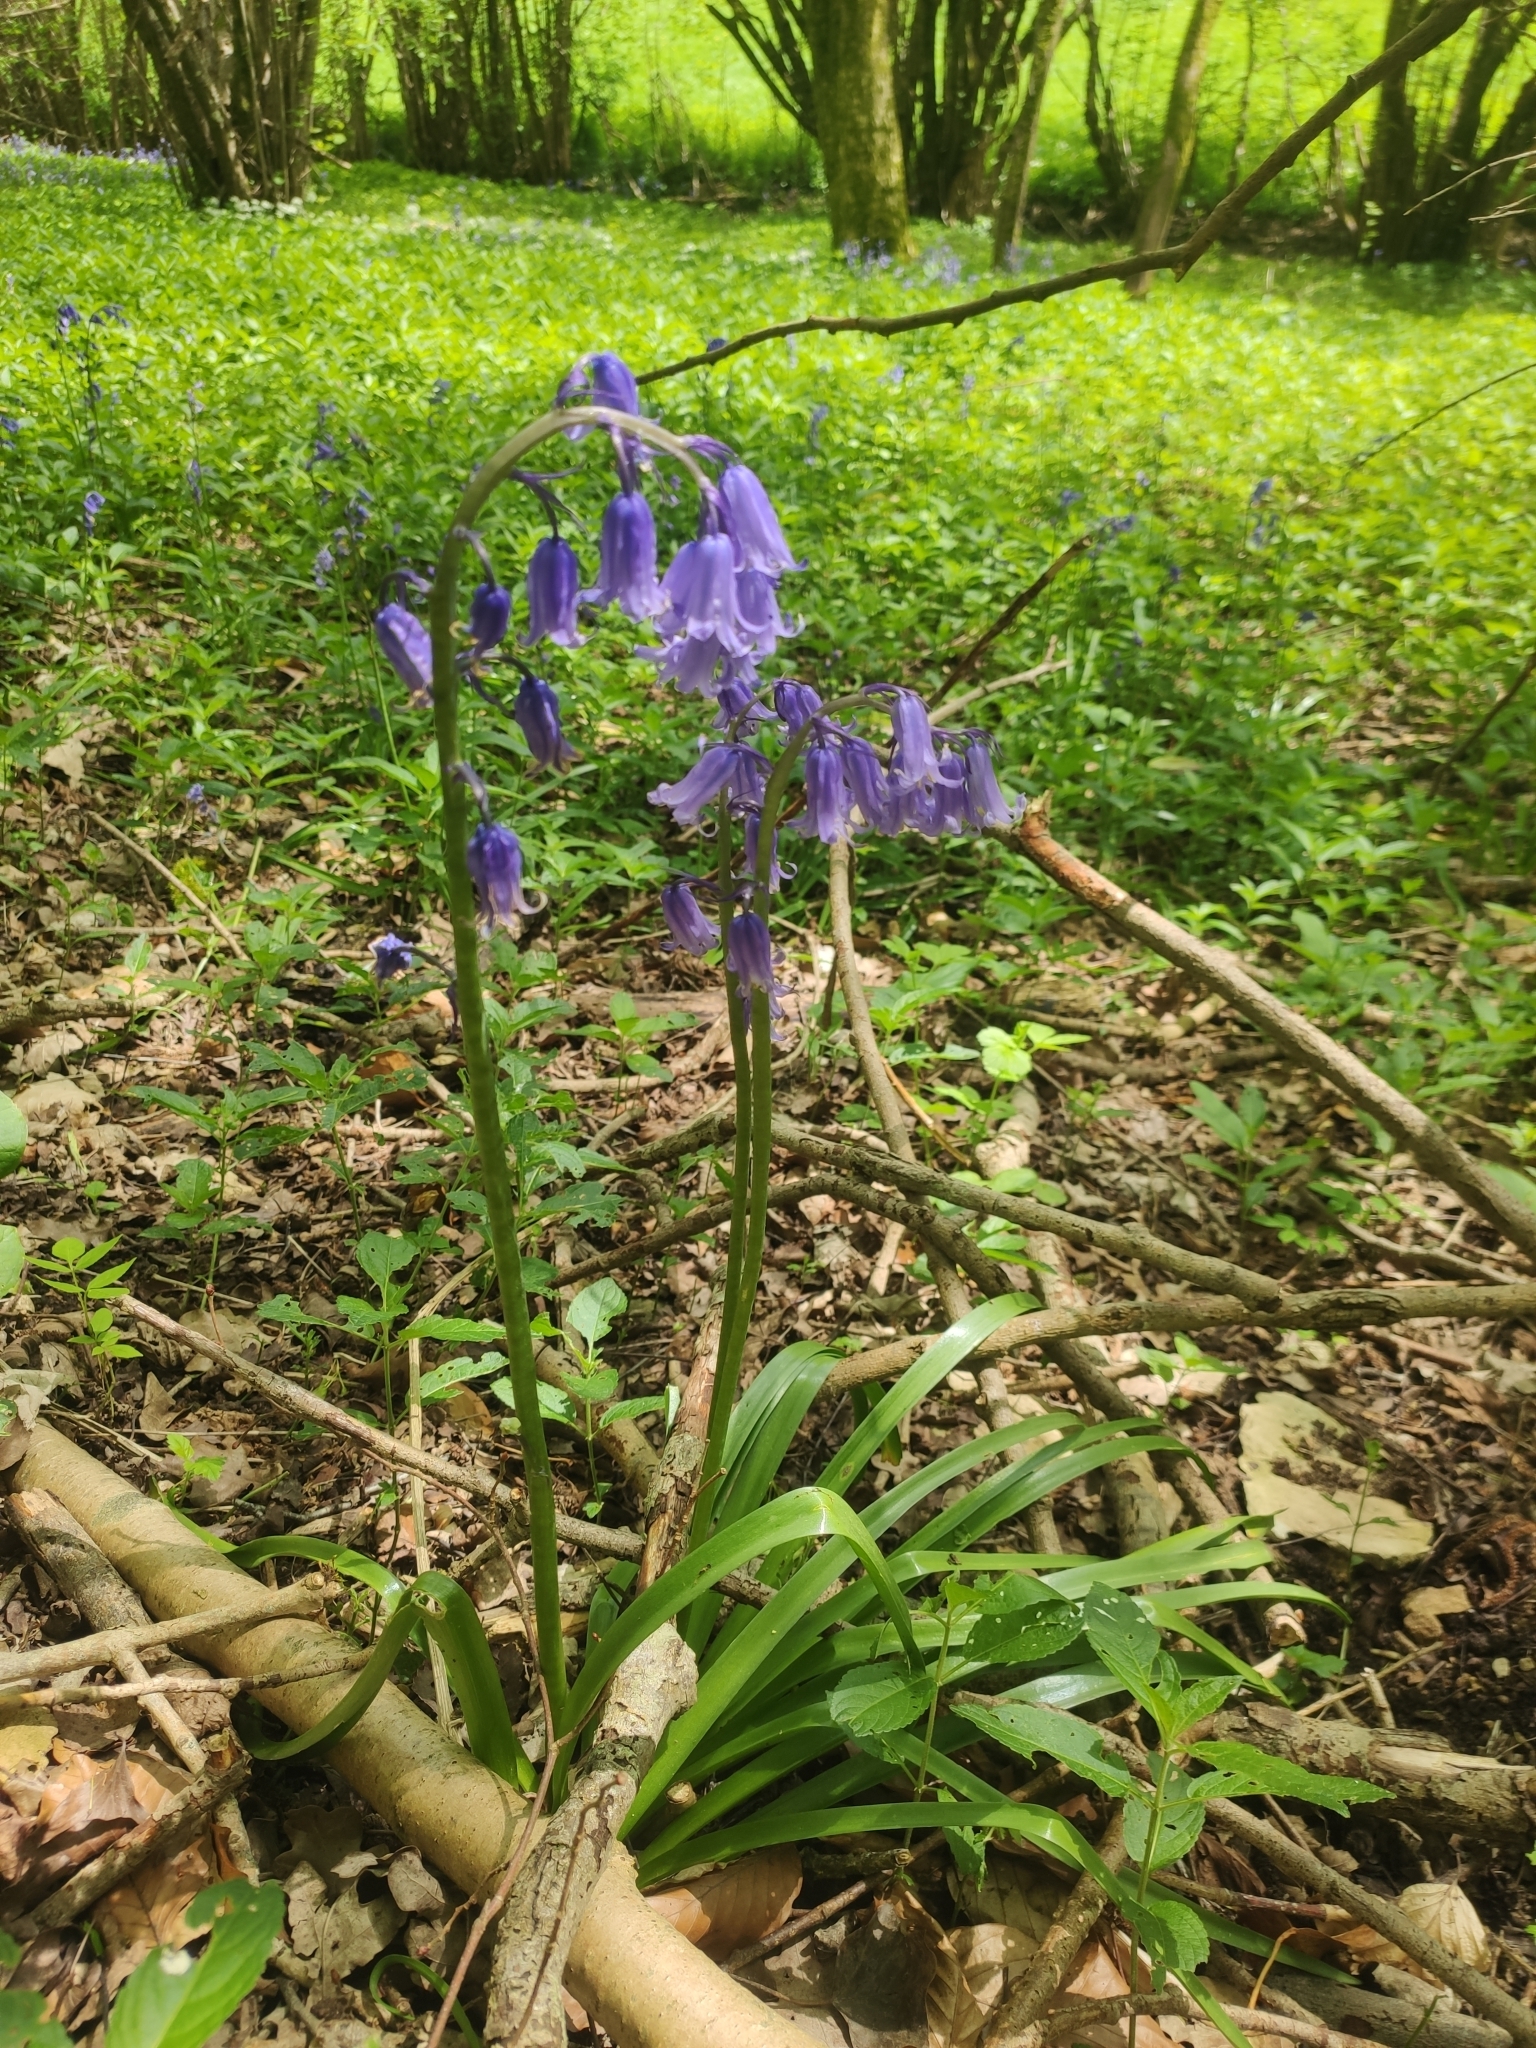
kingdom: Plantae
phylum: Tracheophyta
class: Liliopsida
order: Asparagales
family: Asparagaceae
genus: Hyacinthoides
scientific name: Hyacinthoides non-scripta
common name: Bluebell
